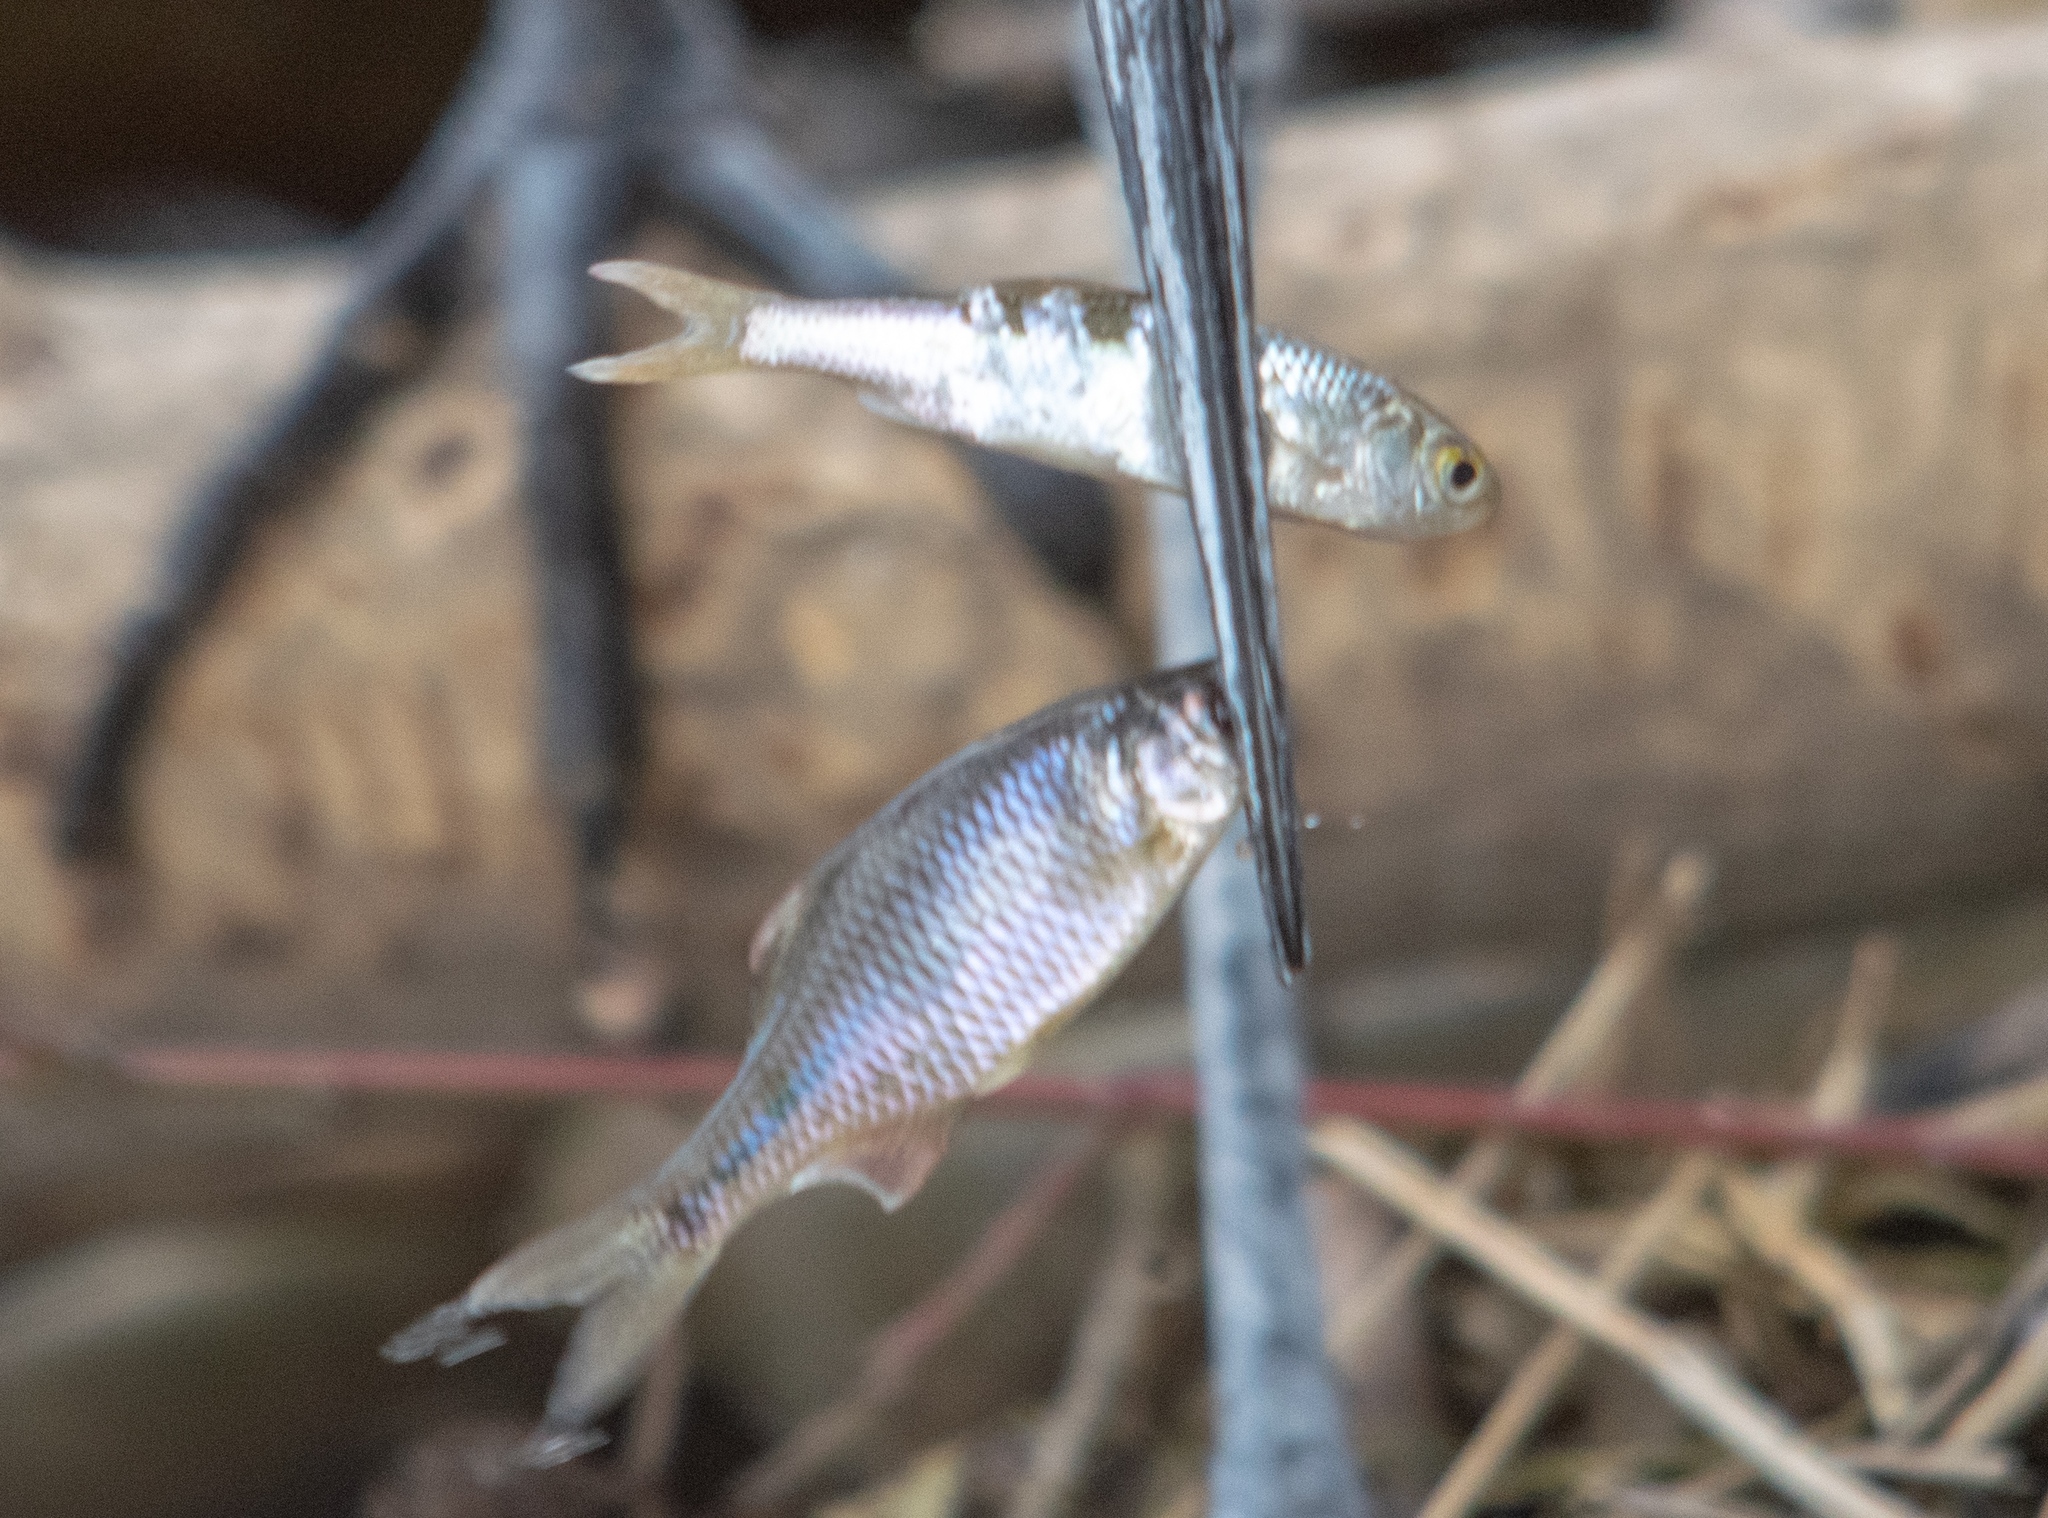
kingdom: Animalia
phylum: Chordata
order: Cypriniformes
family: Cyprinidae
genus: Rhodeus
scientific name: Rhodeus amarus
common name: Bitterling
